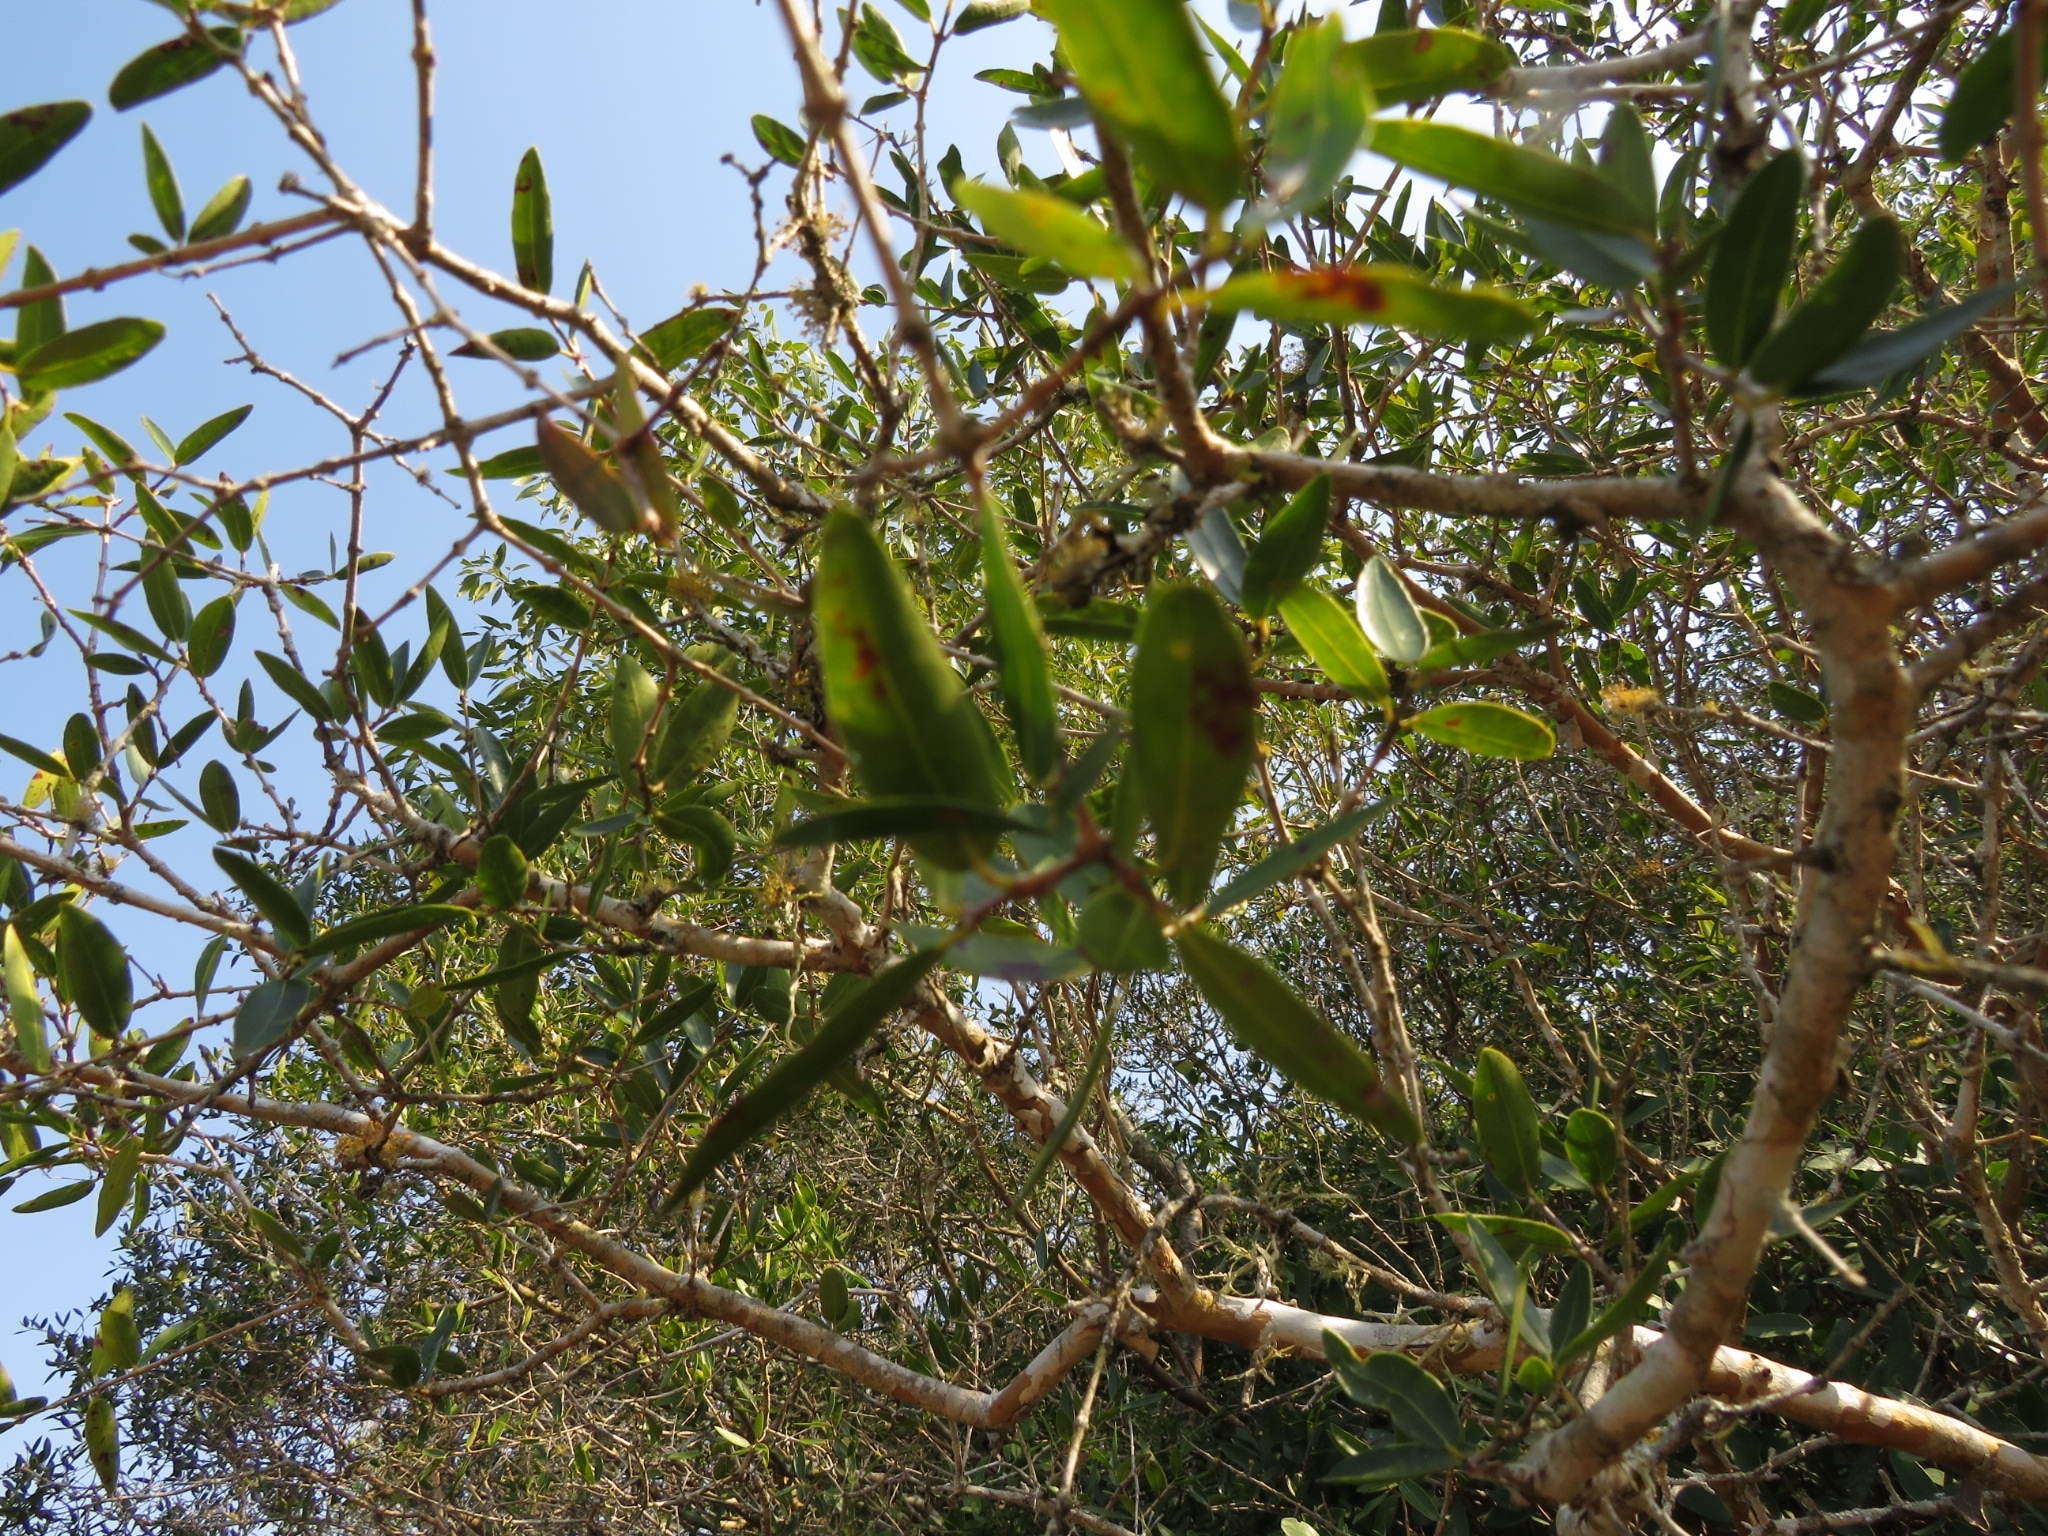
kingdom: Plantae
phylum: Tracheophyta
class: Magnoliopsida
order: Myrtales
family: Myrtaceae
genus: Myrcianthes
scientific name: Myrcianthes cisplatensis
